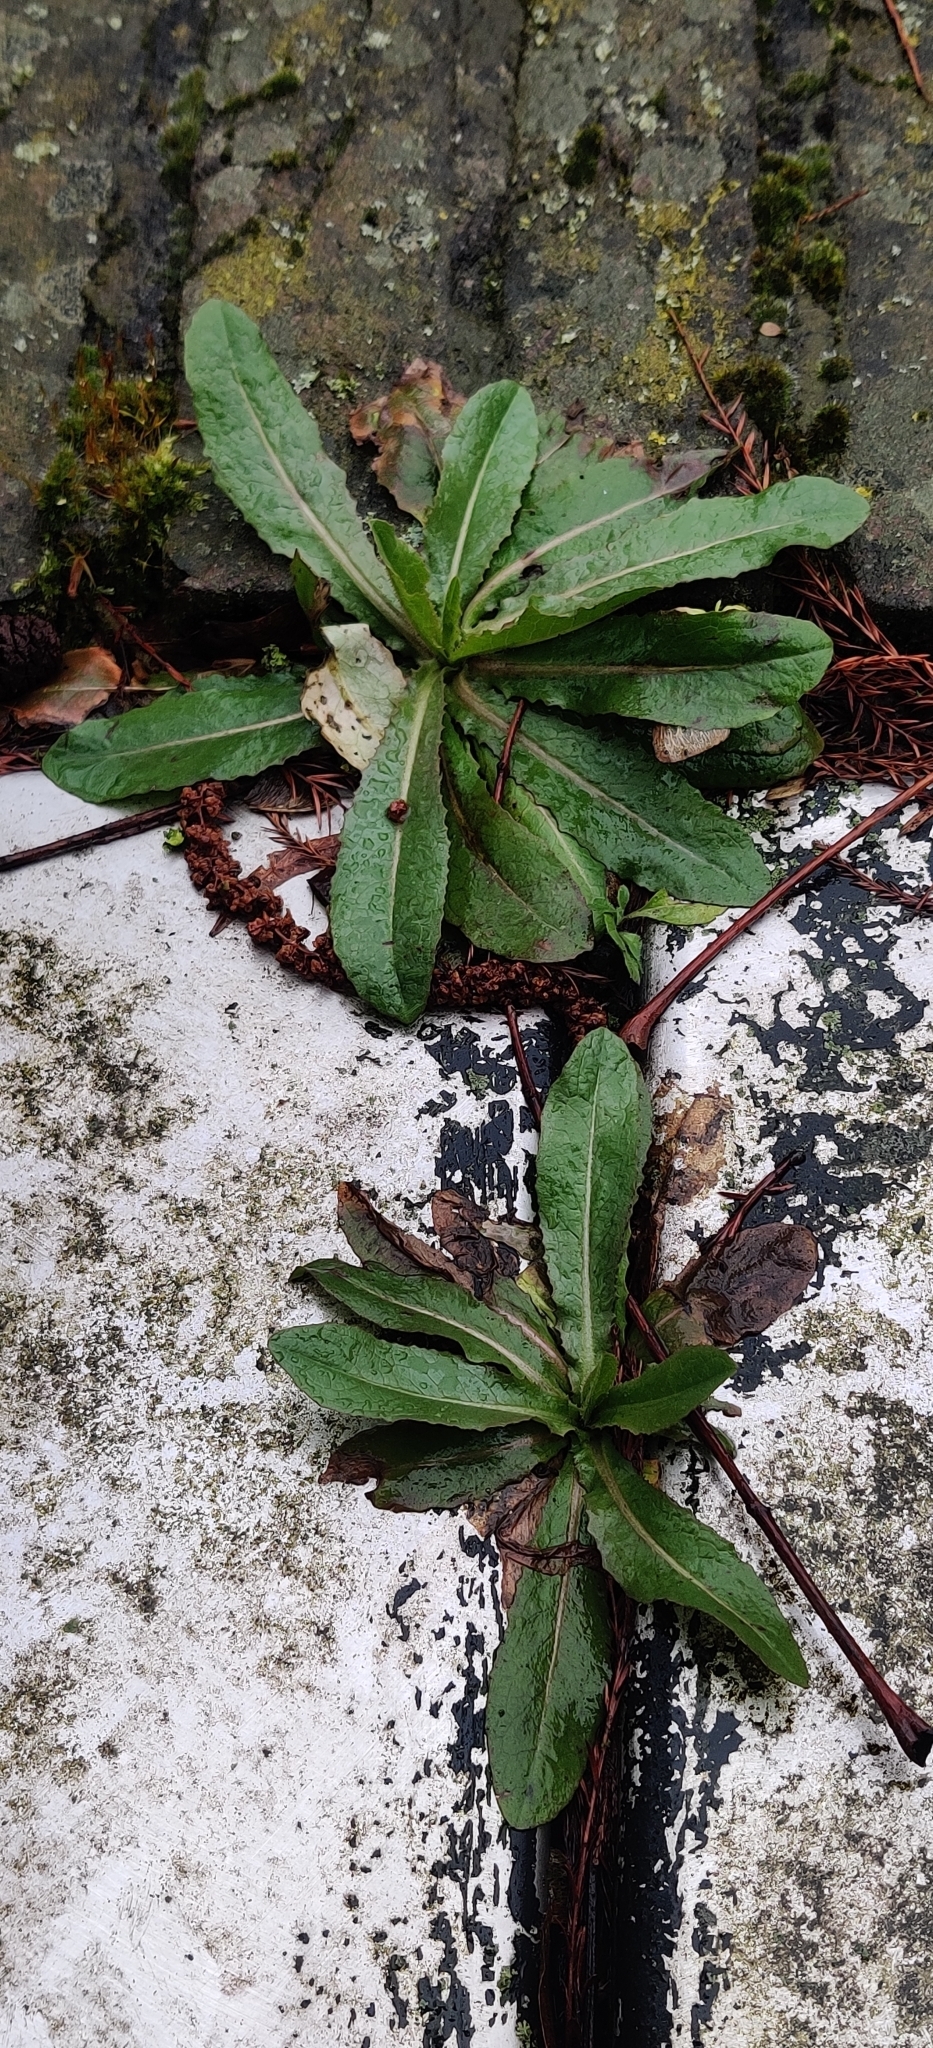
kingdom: Plantae
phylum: Tracheophyta
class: Magnoliopsida
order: Asterales
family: Asteraceae
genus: Lactuca
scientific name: Lactuca serriola
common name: Prickly lettuce
